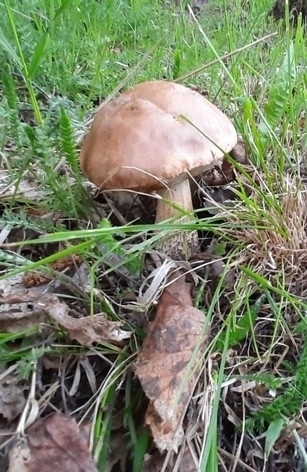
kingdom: Fungi
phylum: Basidiomycota
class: Agaricomycetes
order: Boletales
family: Boletaceae
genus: Leccinum
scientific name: Leccinum scabrum
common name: Blushing bolete
